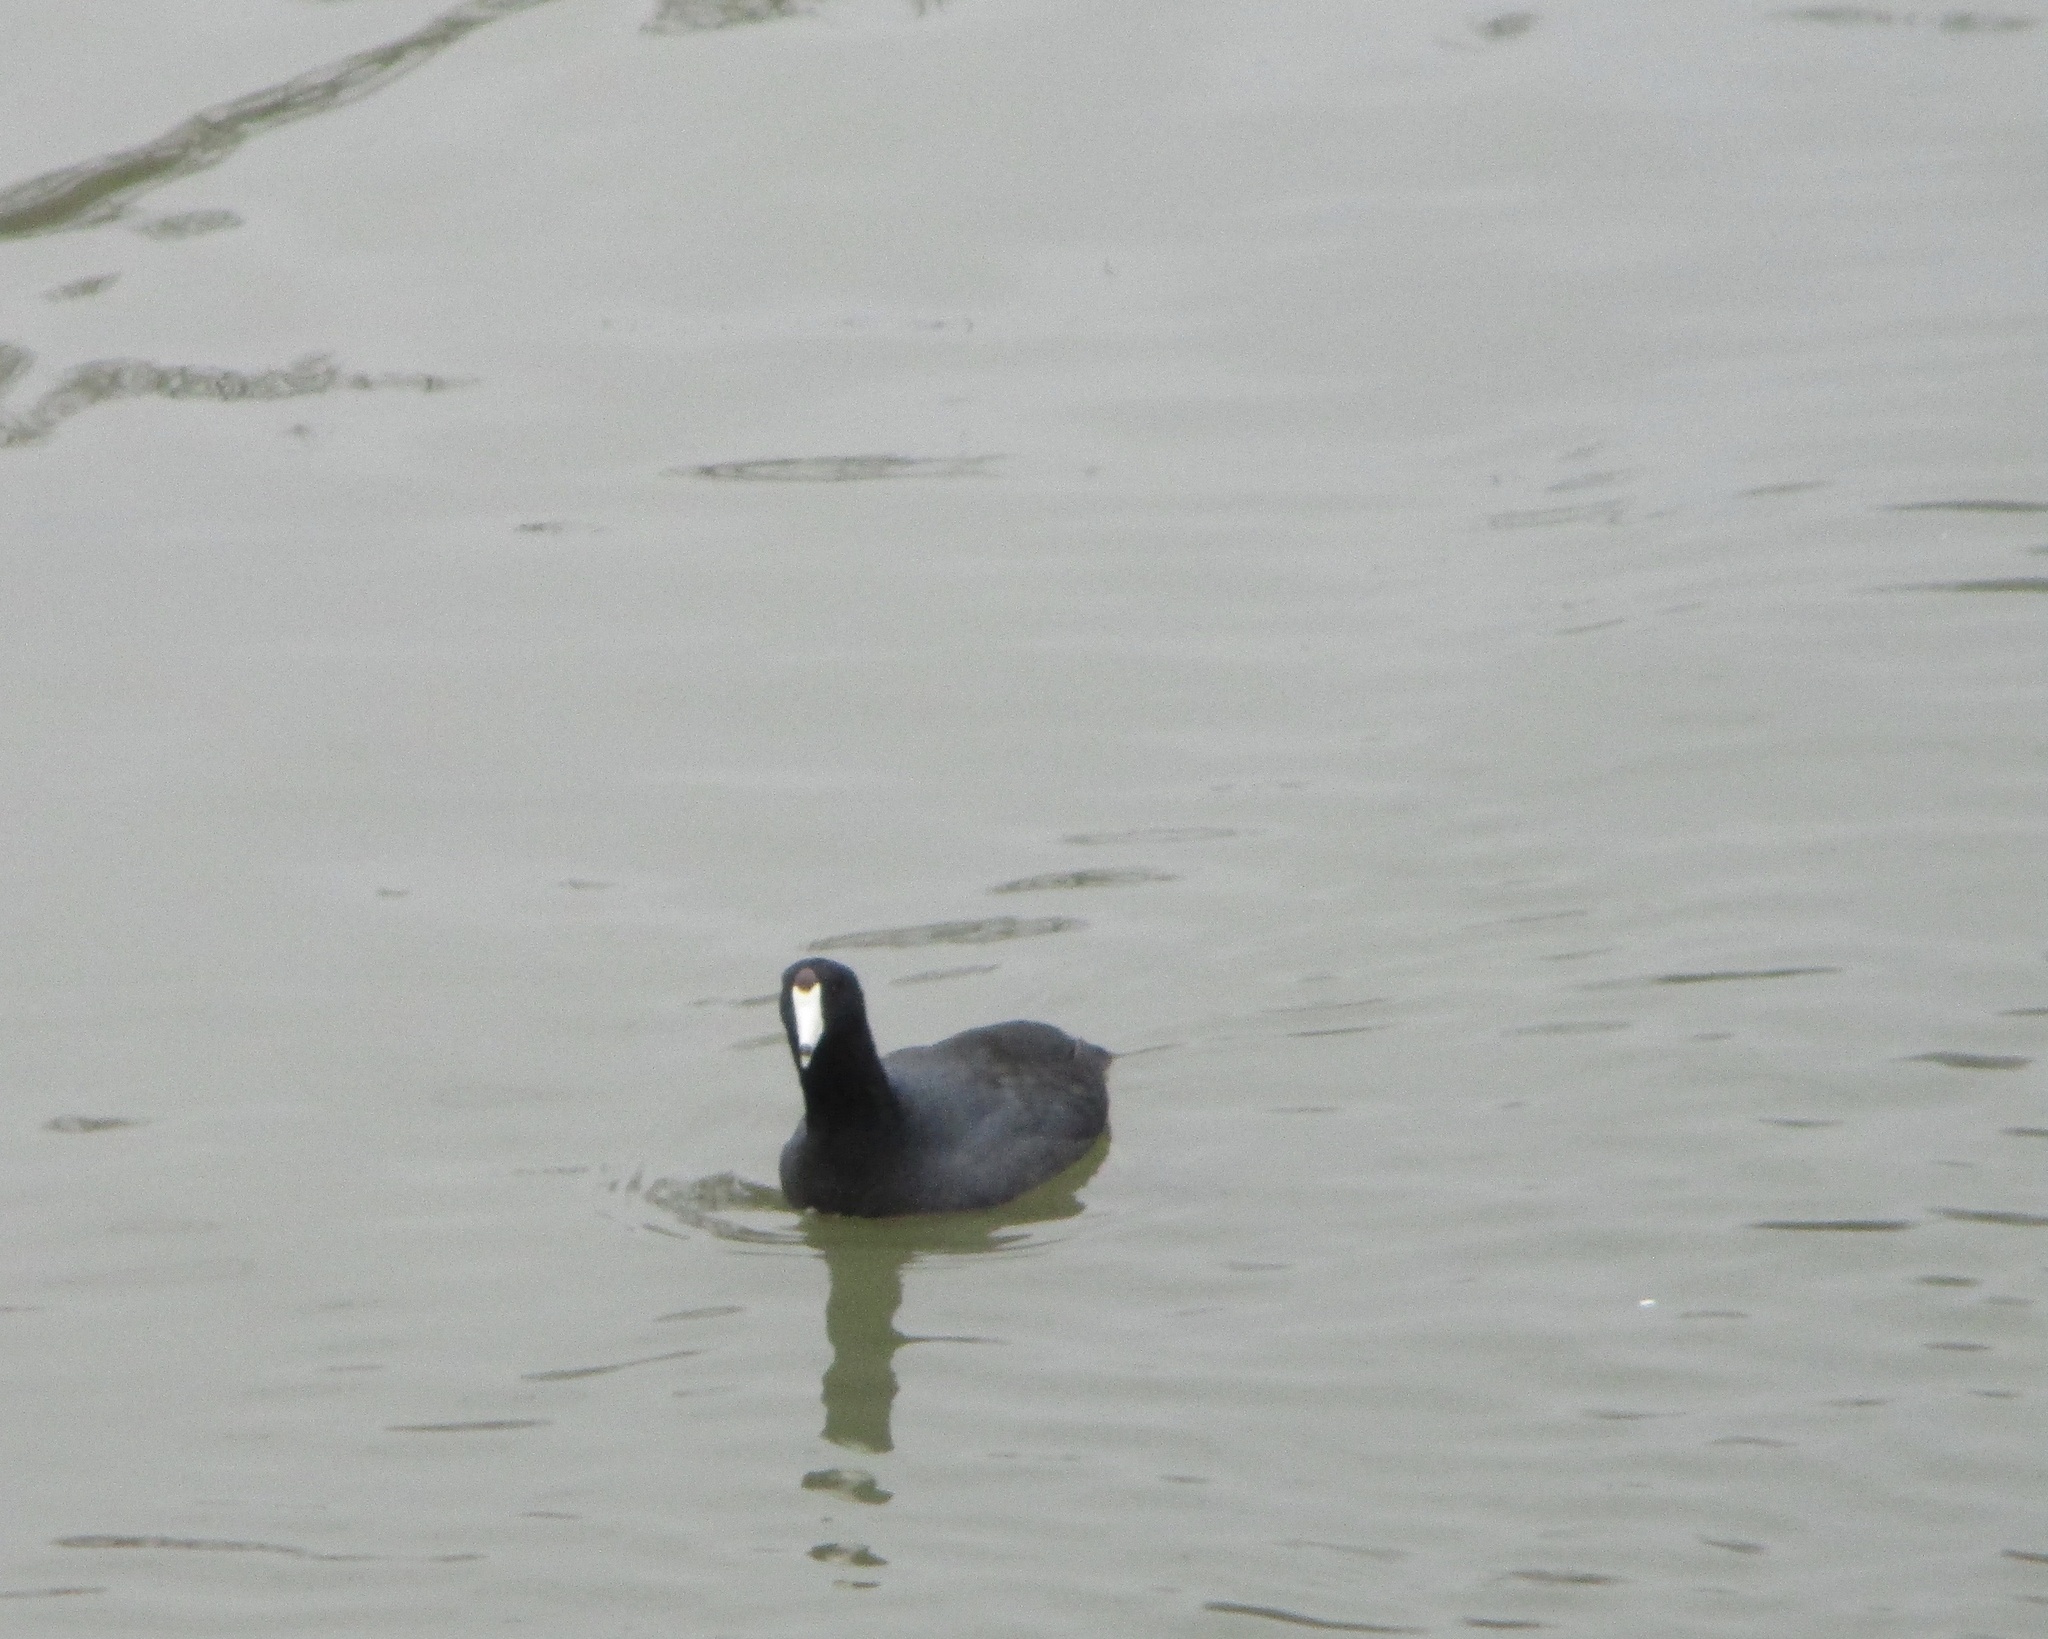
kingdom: Animalia
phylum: Chordata
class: Aves
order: Gruiformes
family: Rallidae
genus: Fulica
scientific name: Fulica americana
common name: American coot
